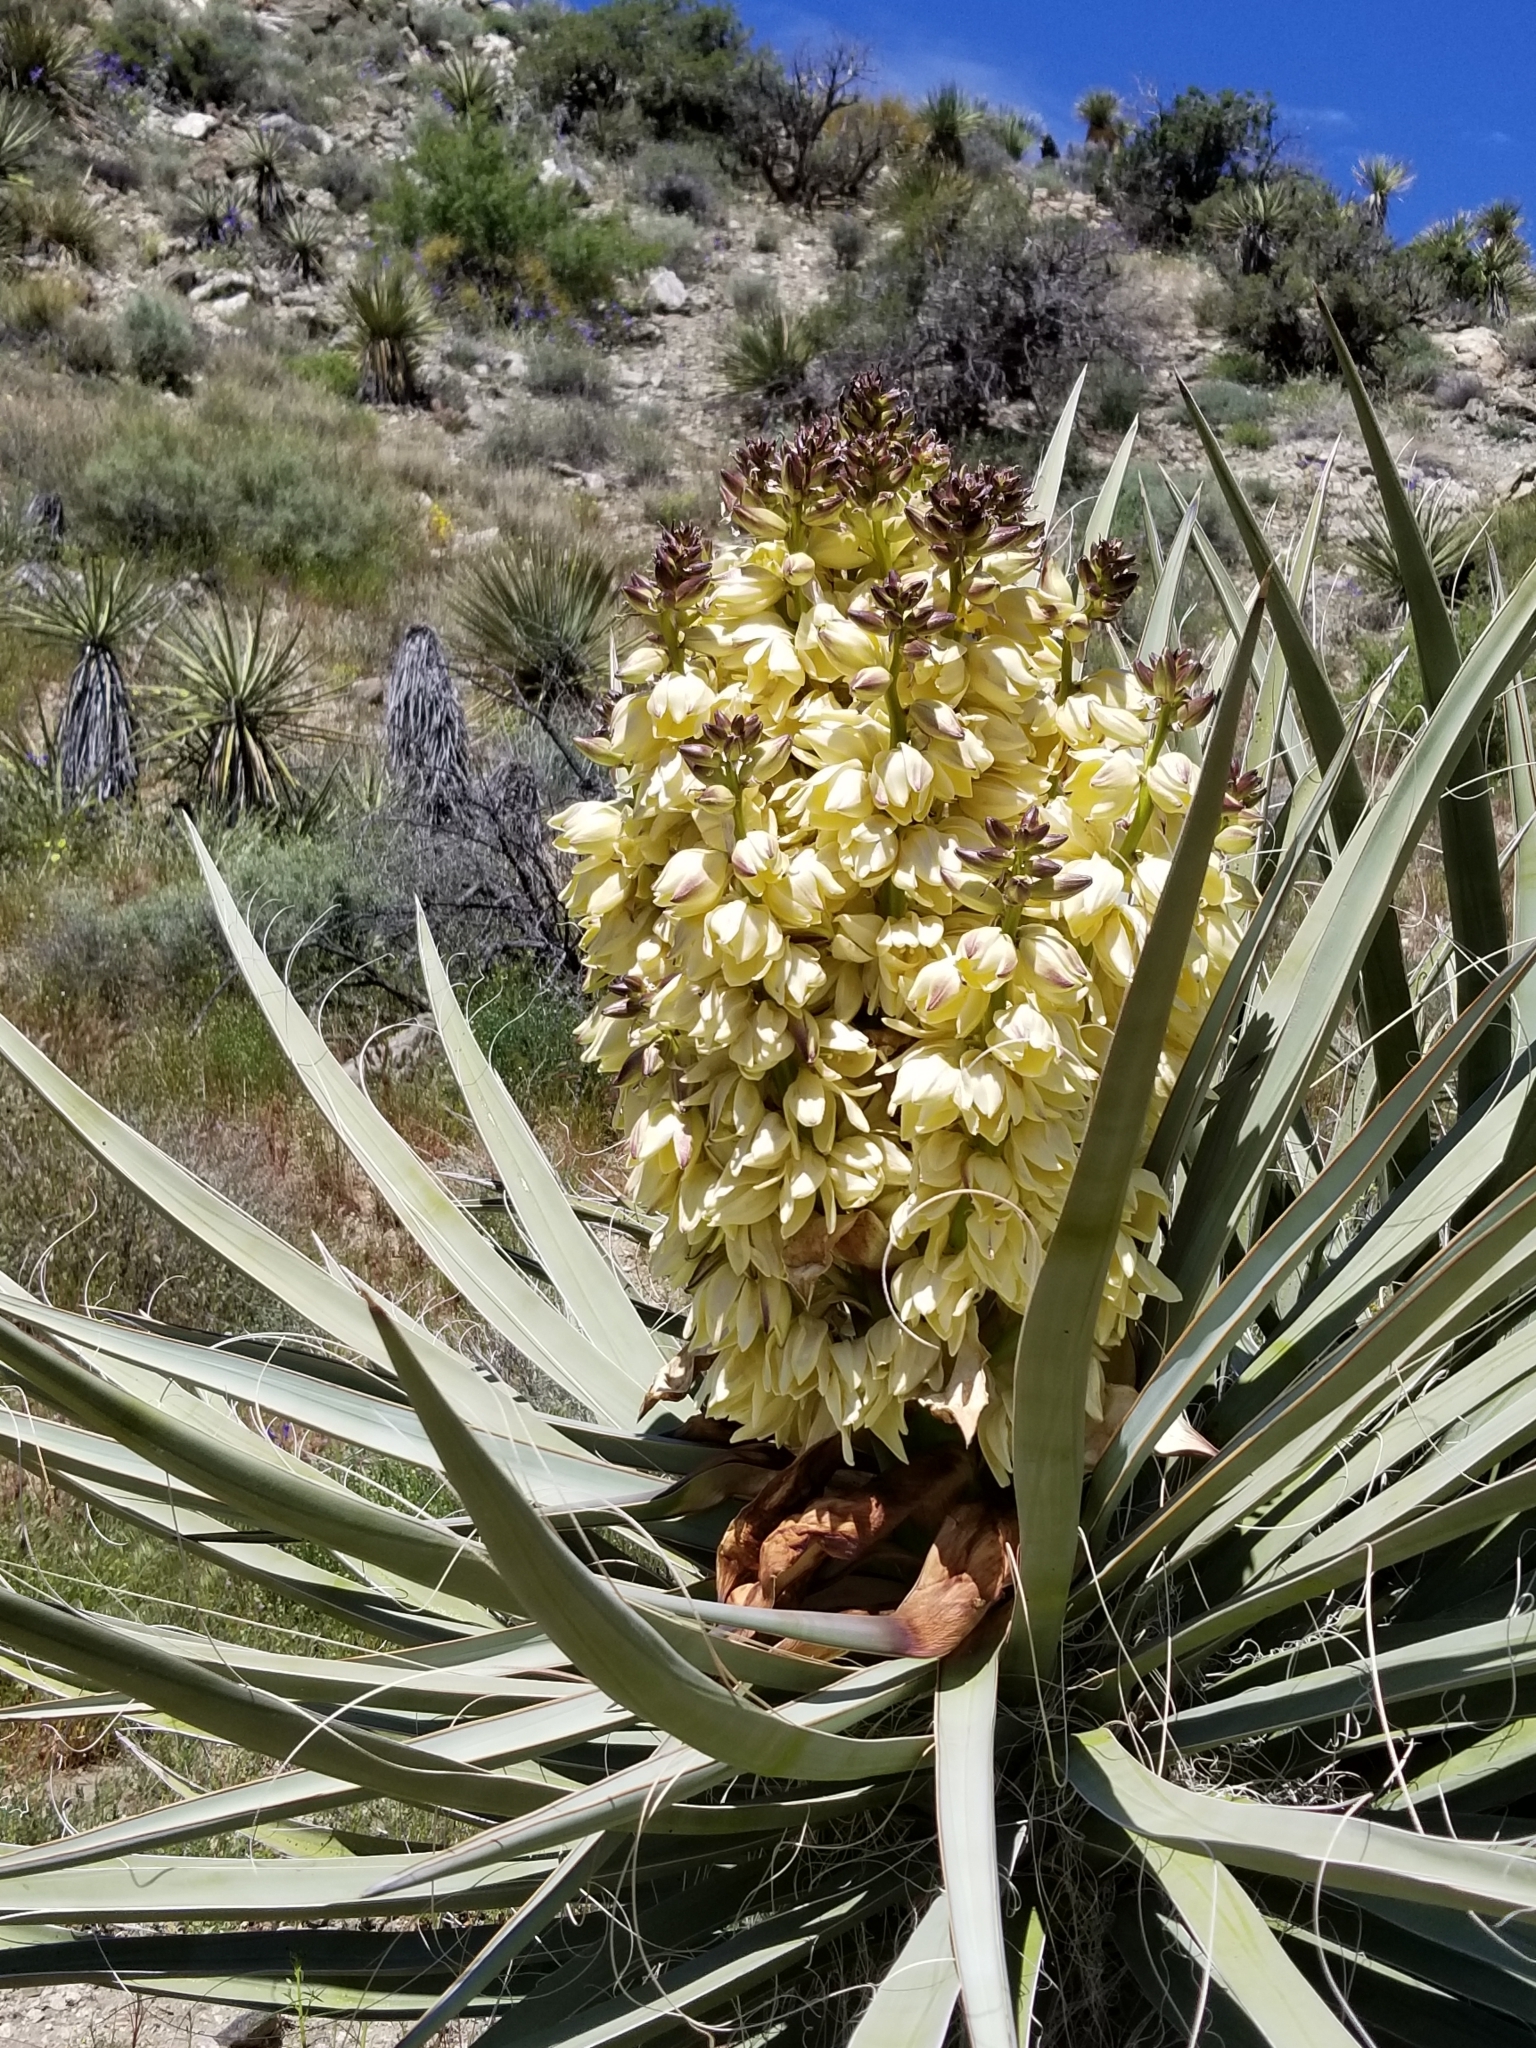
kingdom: Plantae
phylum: Tracheophyta
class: Liliopsida
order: Asparagales
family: Asparagaceae
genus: Yucca
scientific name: Yucca schidigera
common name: Mojave yucca
